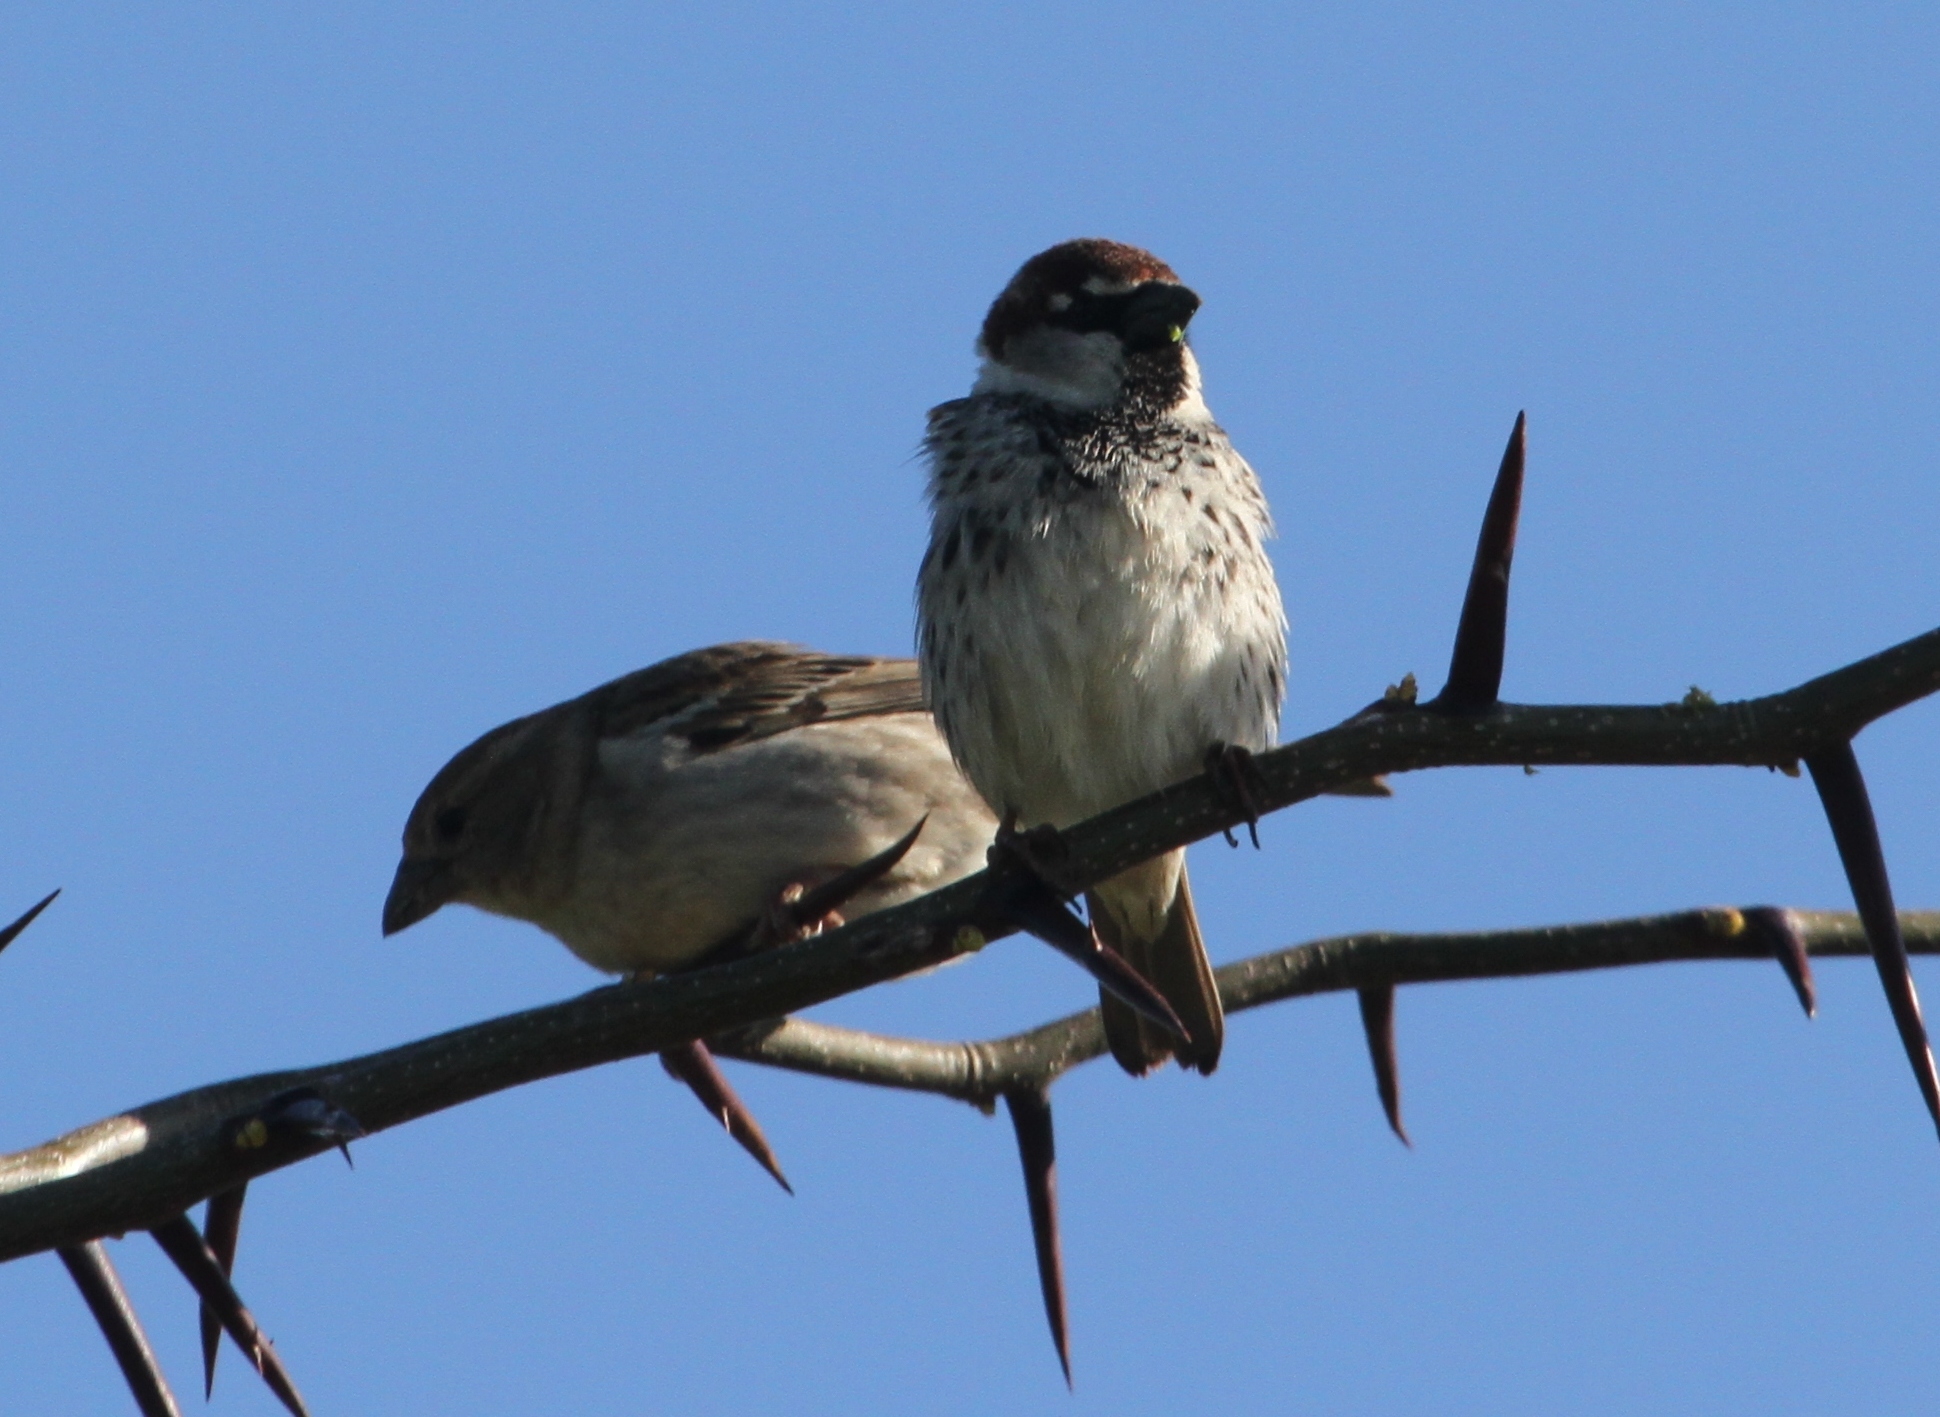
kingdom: Animalia
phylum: Chordata
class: Aves
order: Passeriformes
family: Passeridae
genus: Passer
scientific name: Passer hispaniolensis
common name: Spanish sparrow
